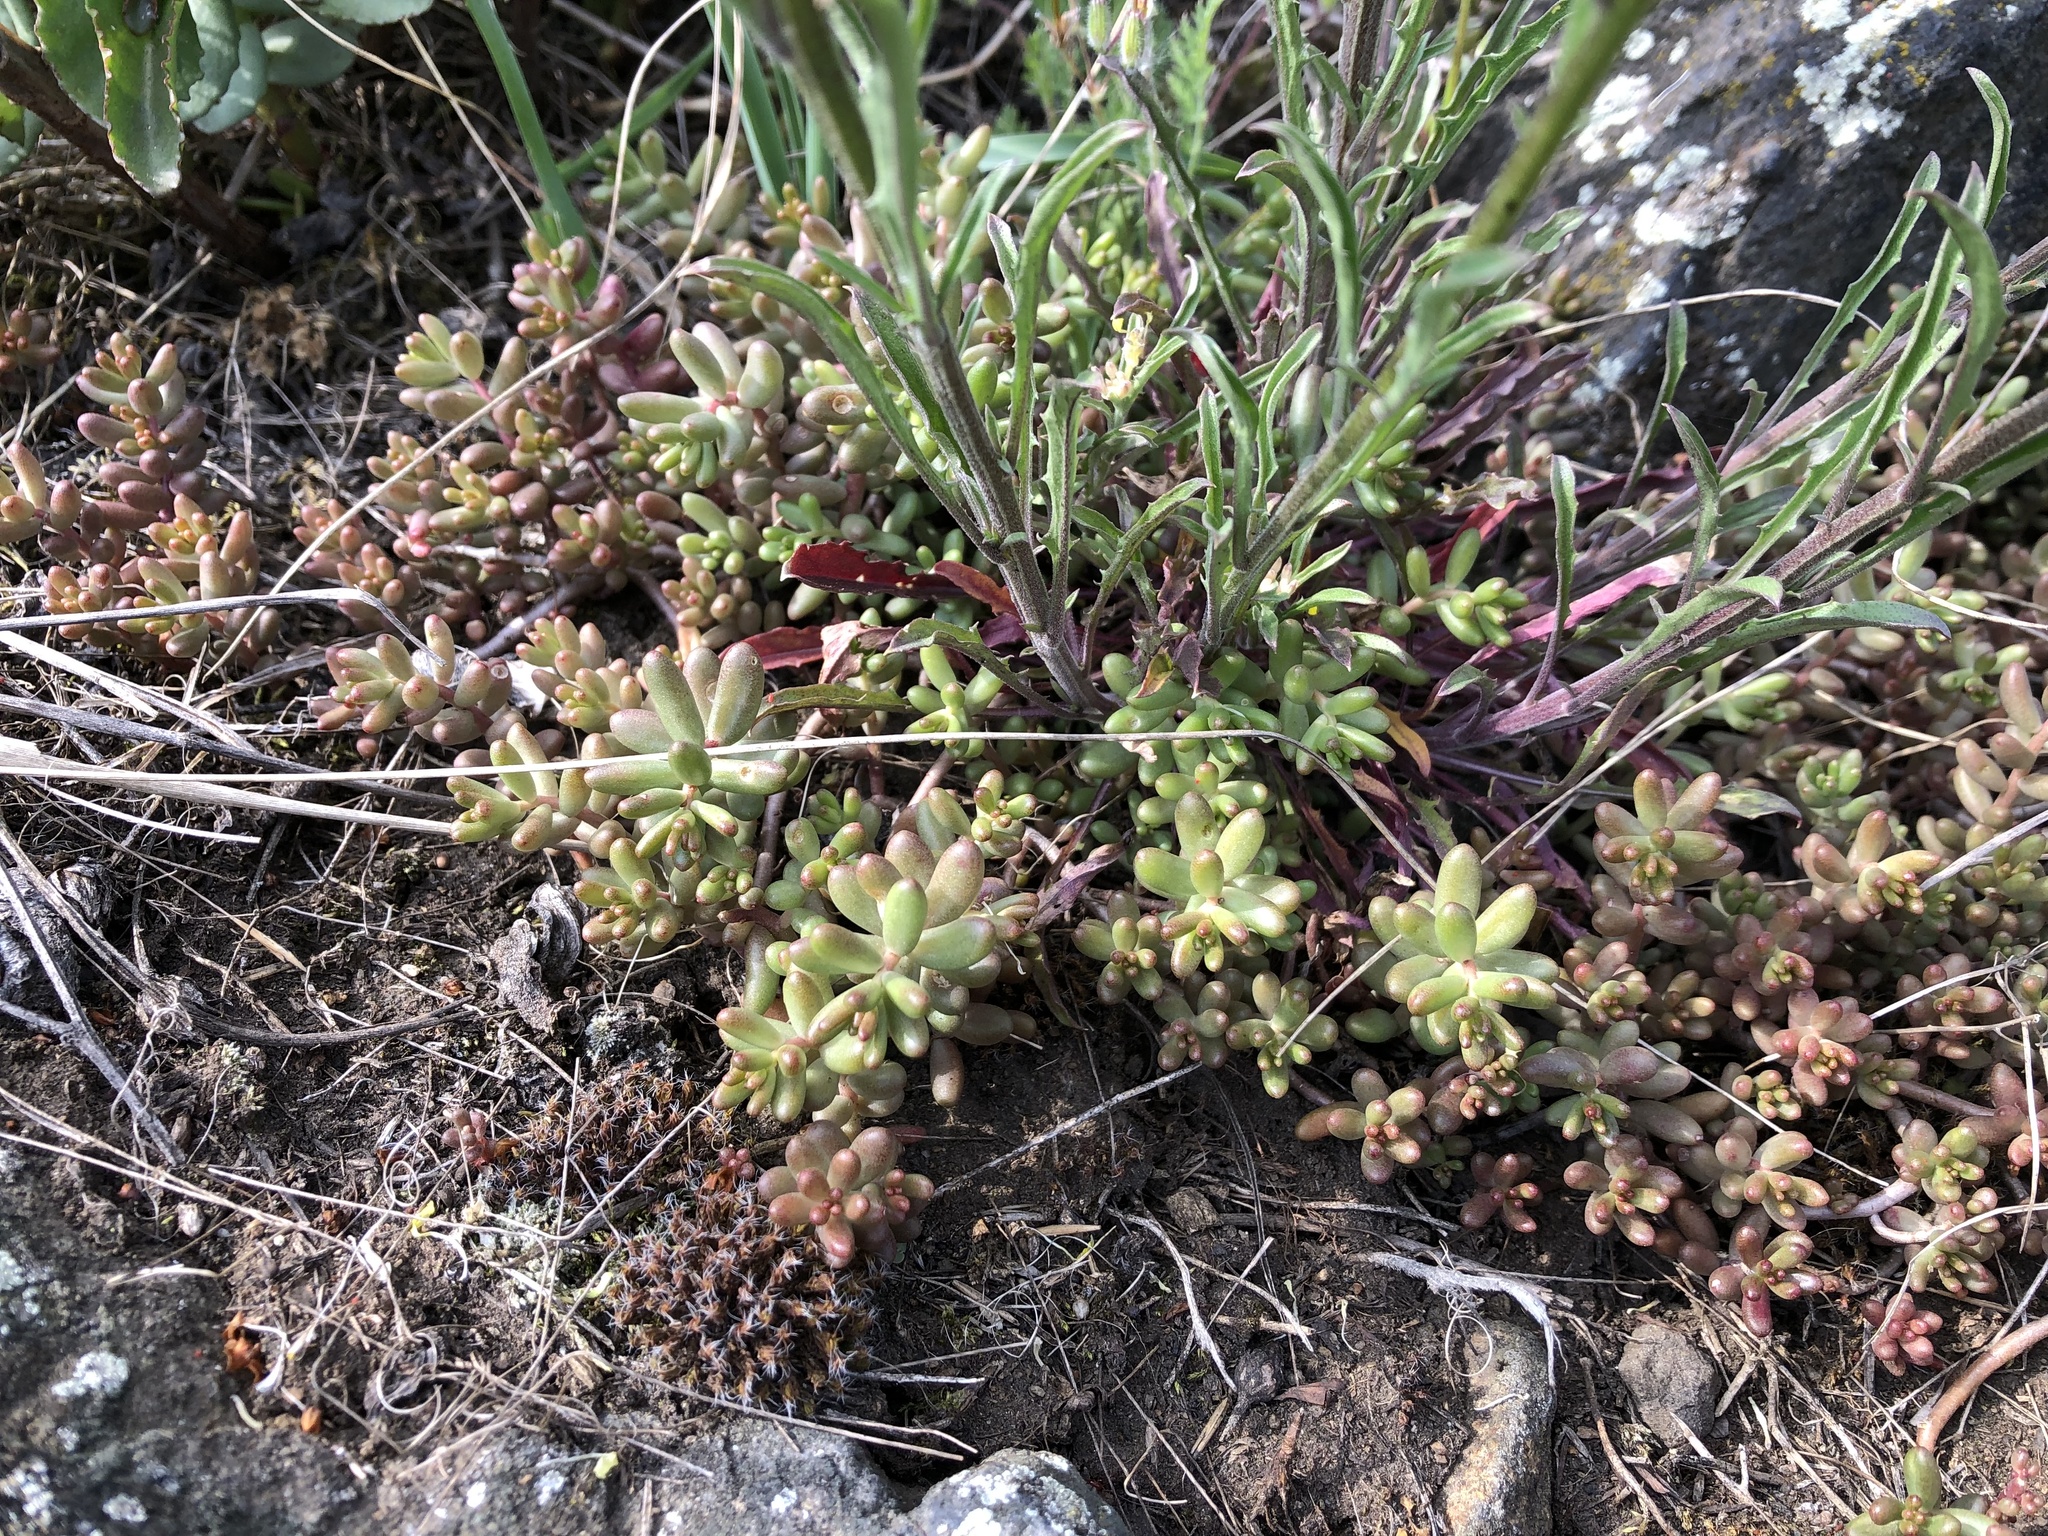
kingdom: Plantae
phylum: Tracheophyta
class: Magnoliopsida
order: Saxifragales
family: Crassulaceae
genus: Sedum
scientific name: Sedum album
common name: White stonecrop
